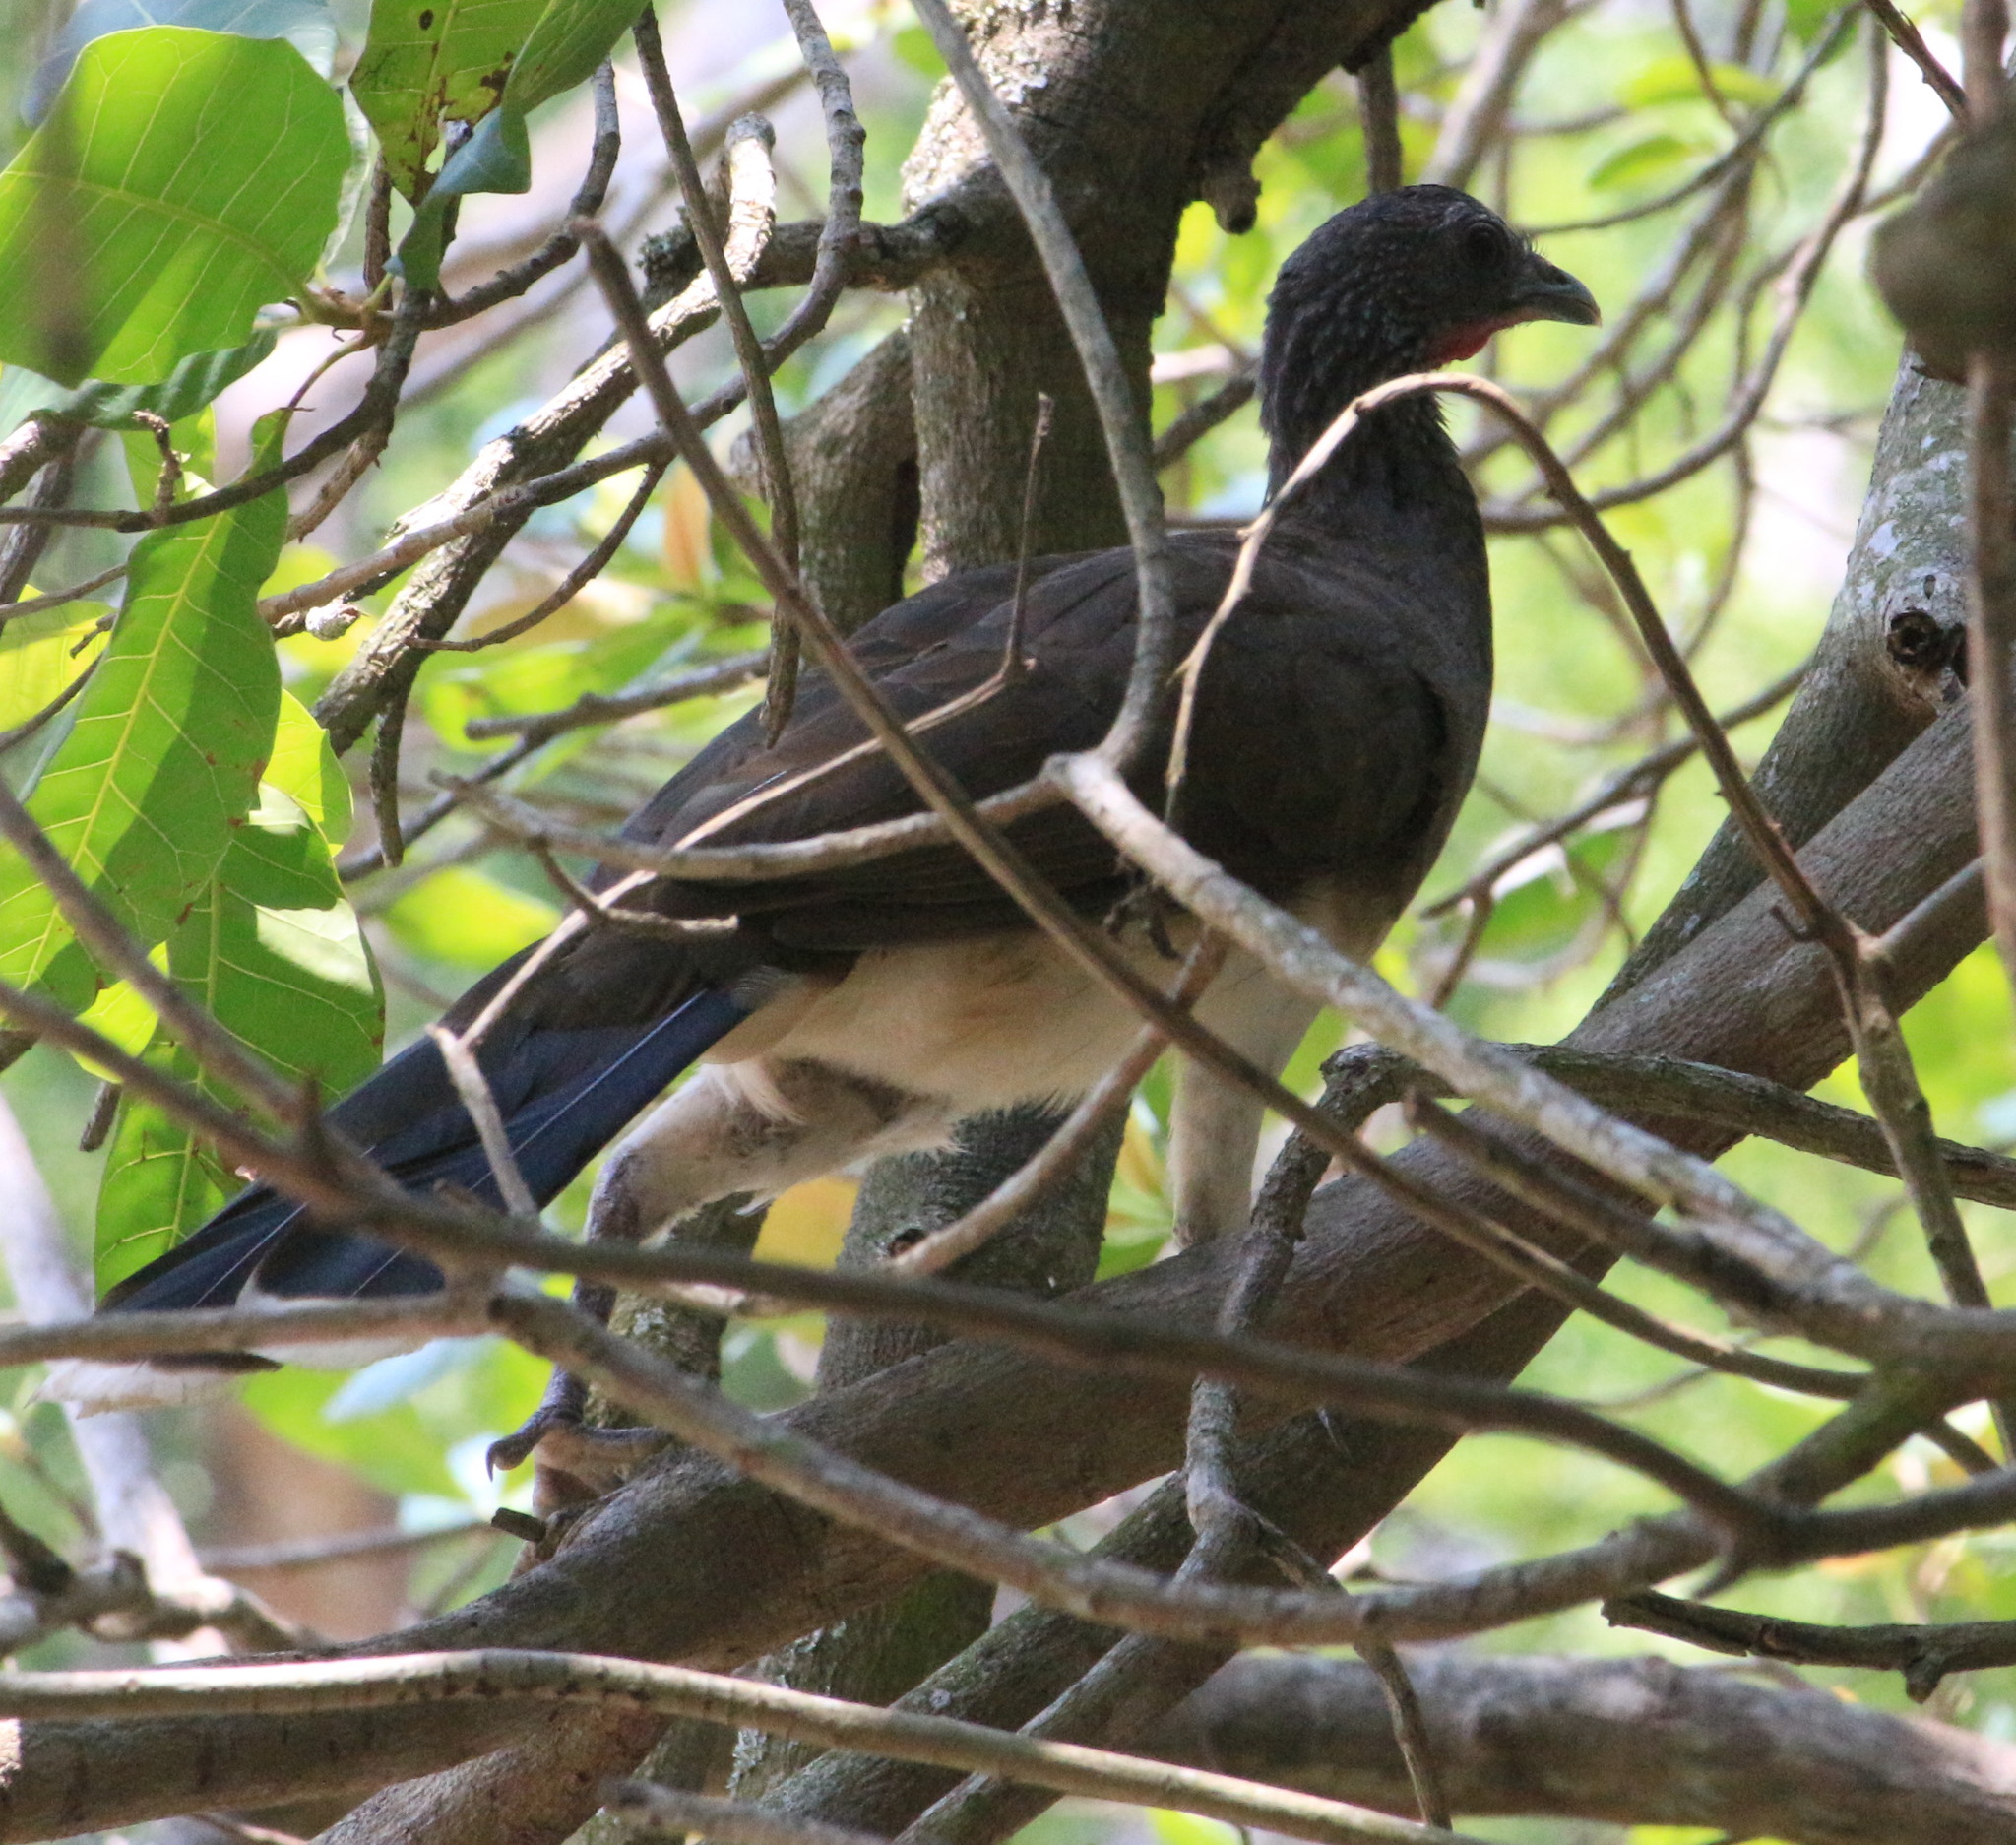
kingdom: Animalia
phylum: Chordata
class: Aves
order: Galliformes
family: Cracidae
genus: Ortalis
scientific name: Ortalis leucogastra
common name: White-bellied chachalaca
